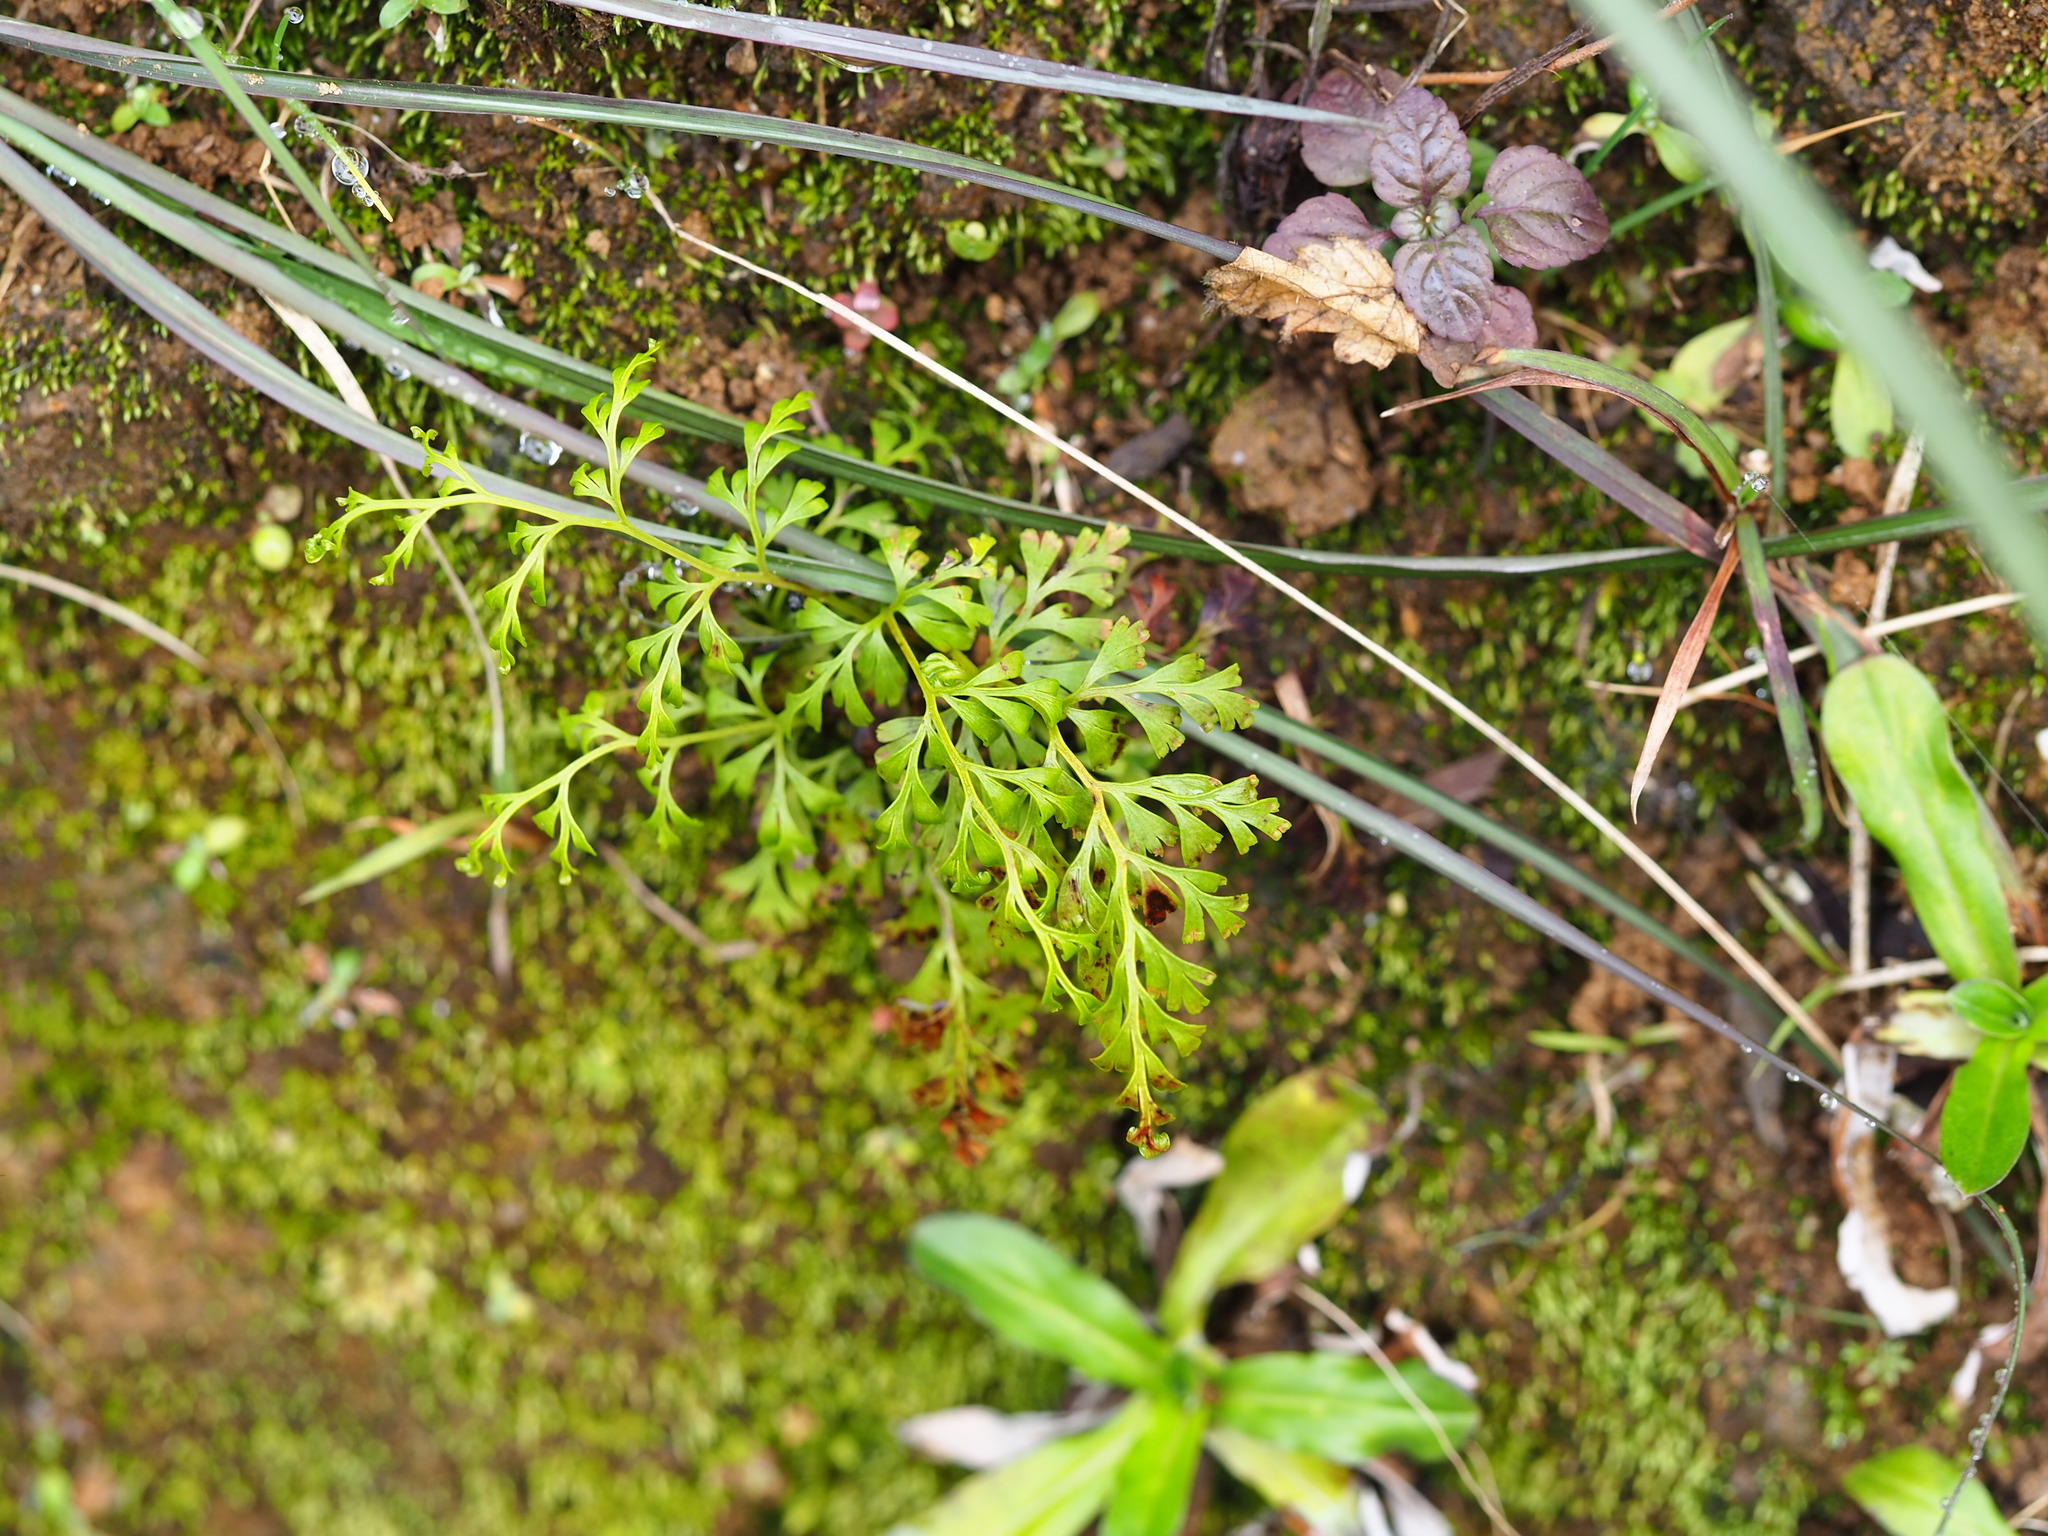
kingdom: Plantae
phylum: Tracheophyta
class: Polypodiopsida
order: Polypodiales
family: Lindsaeaceae
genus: Odontosoria
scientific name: Odontosoria chinensis
